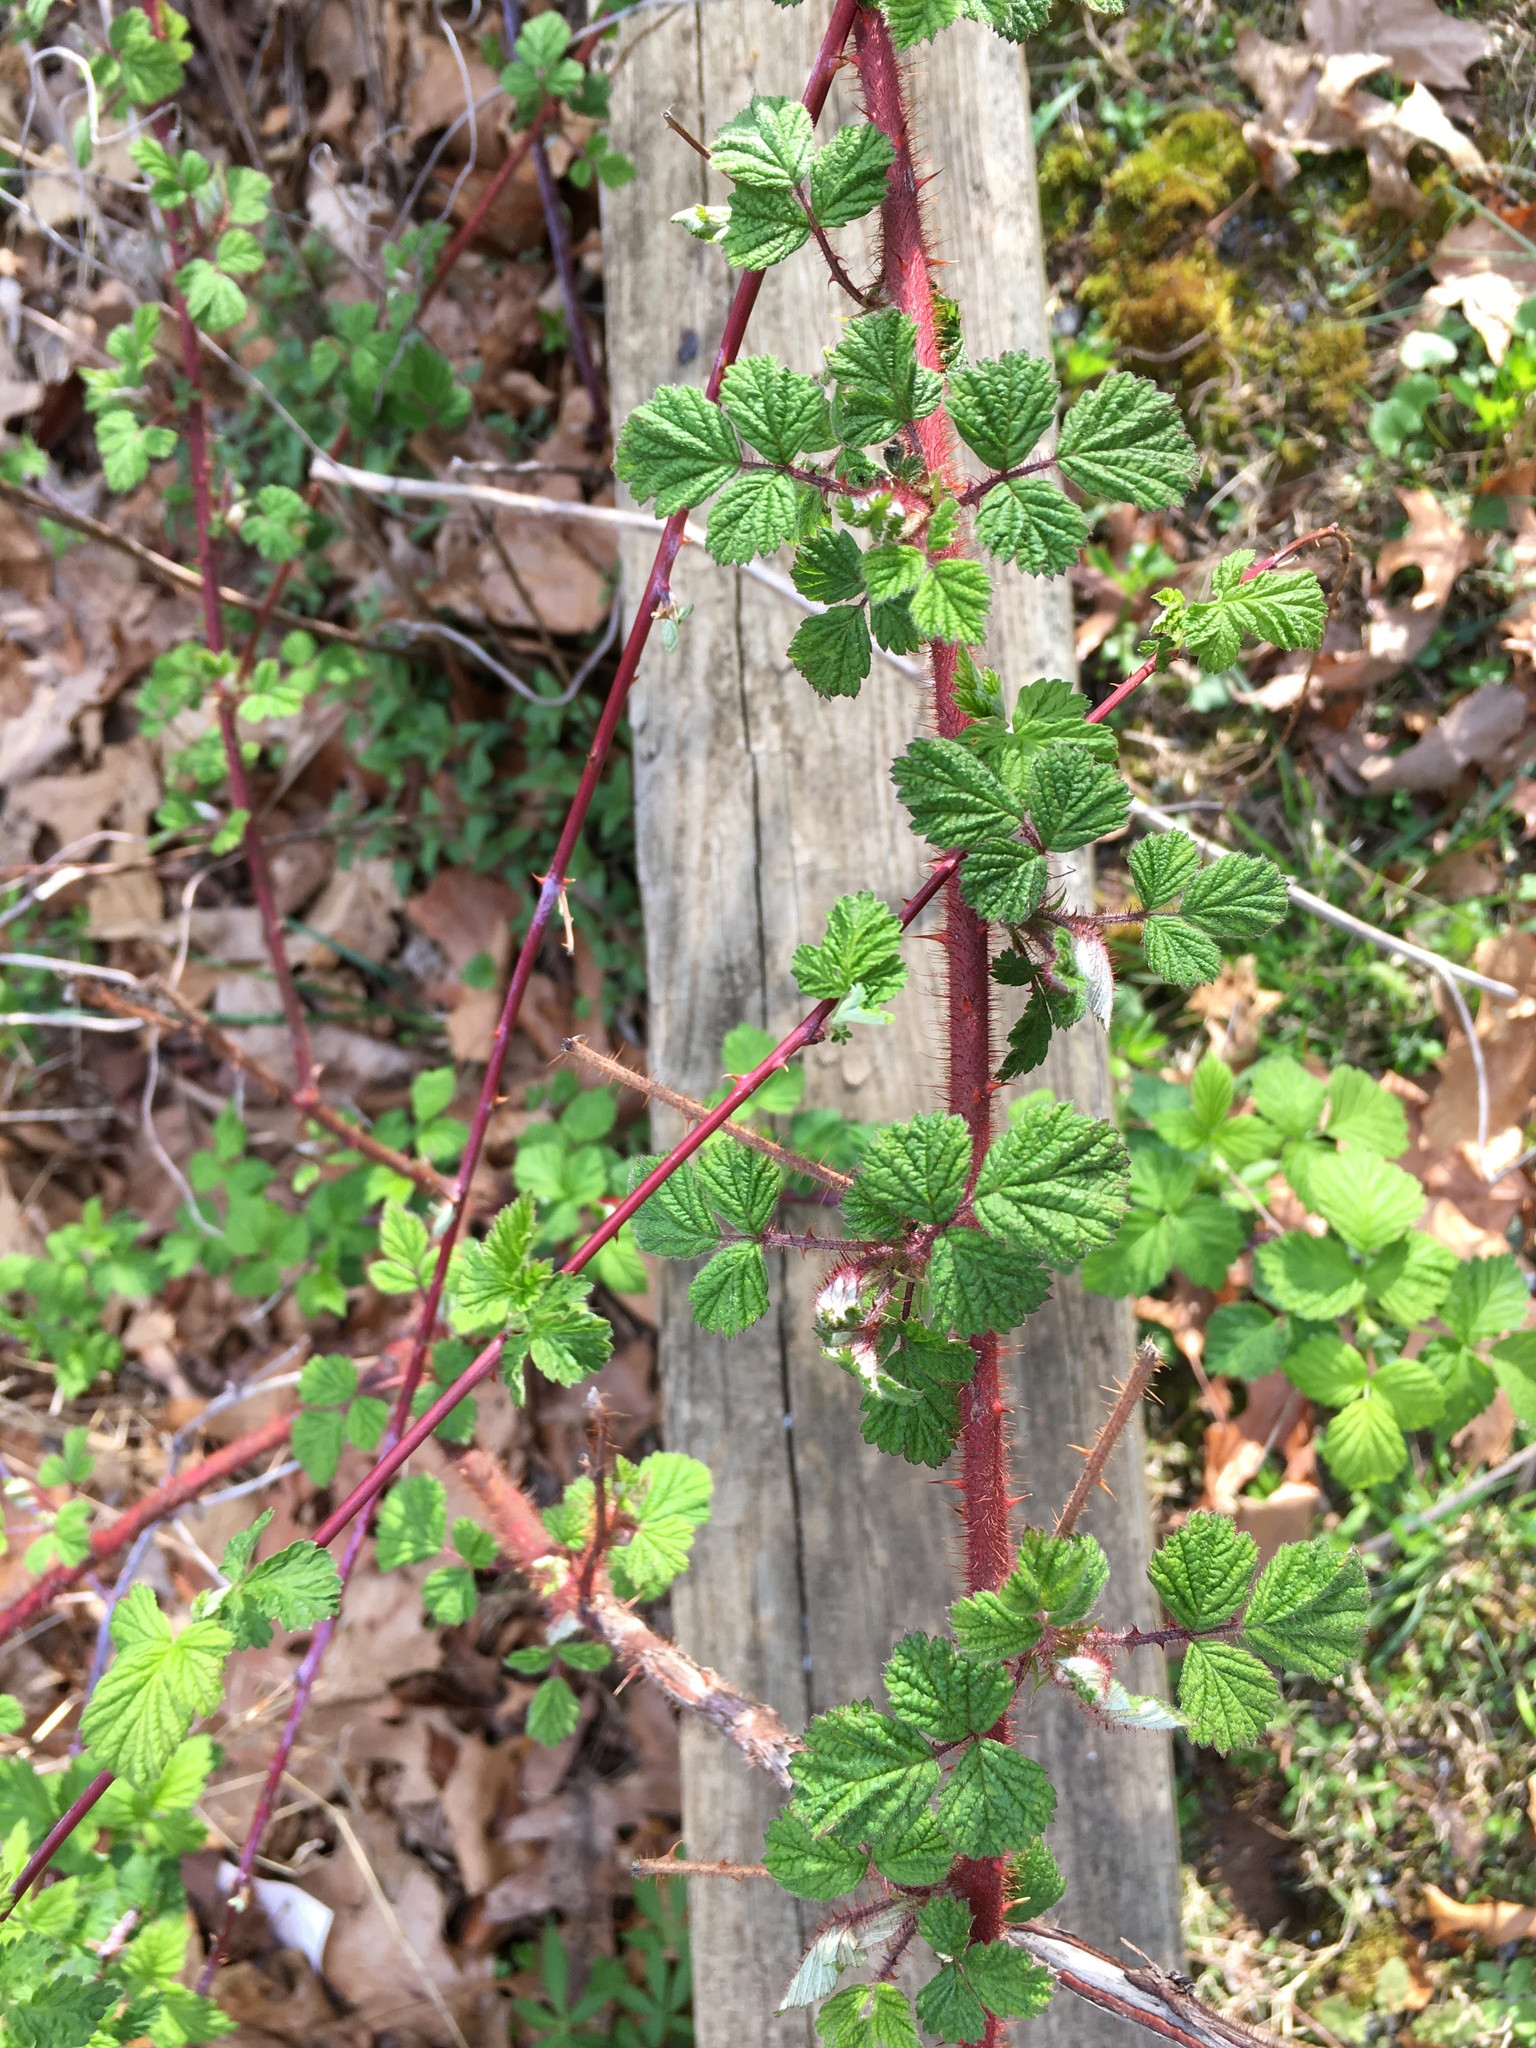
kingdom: Plantae
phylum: Tracheophyta
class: Magnoliopsida
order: Rosales
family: Rosaceae
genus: Rubus
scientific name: Rubus phoenicolasius
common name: Japanese wineberry
